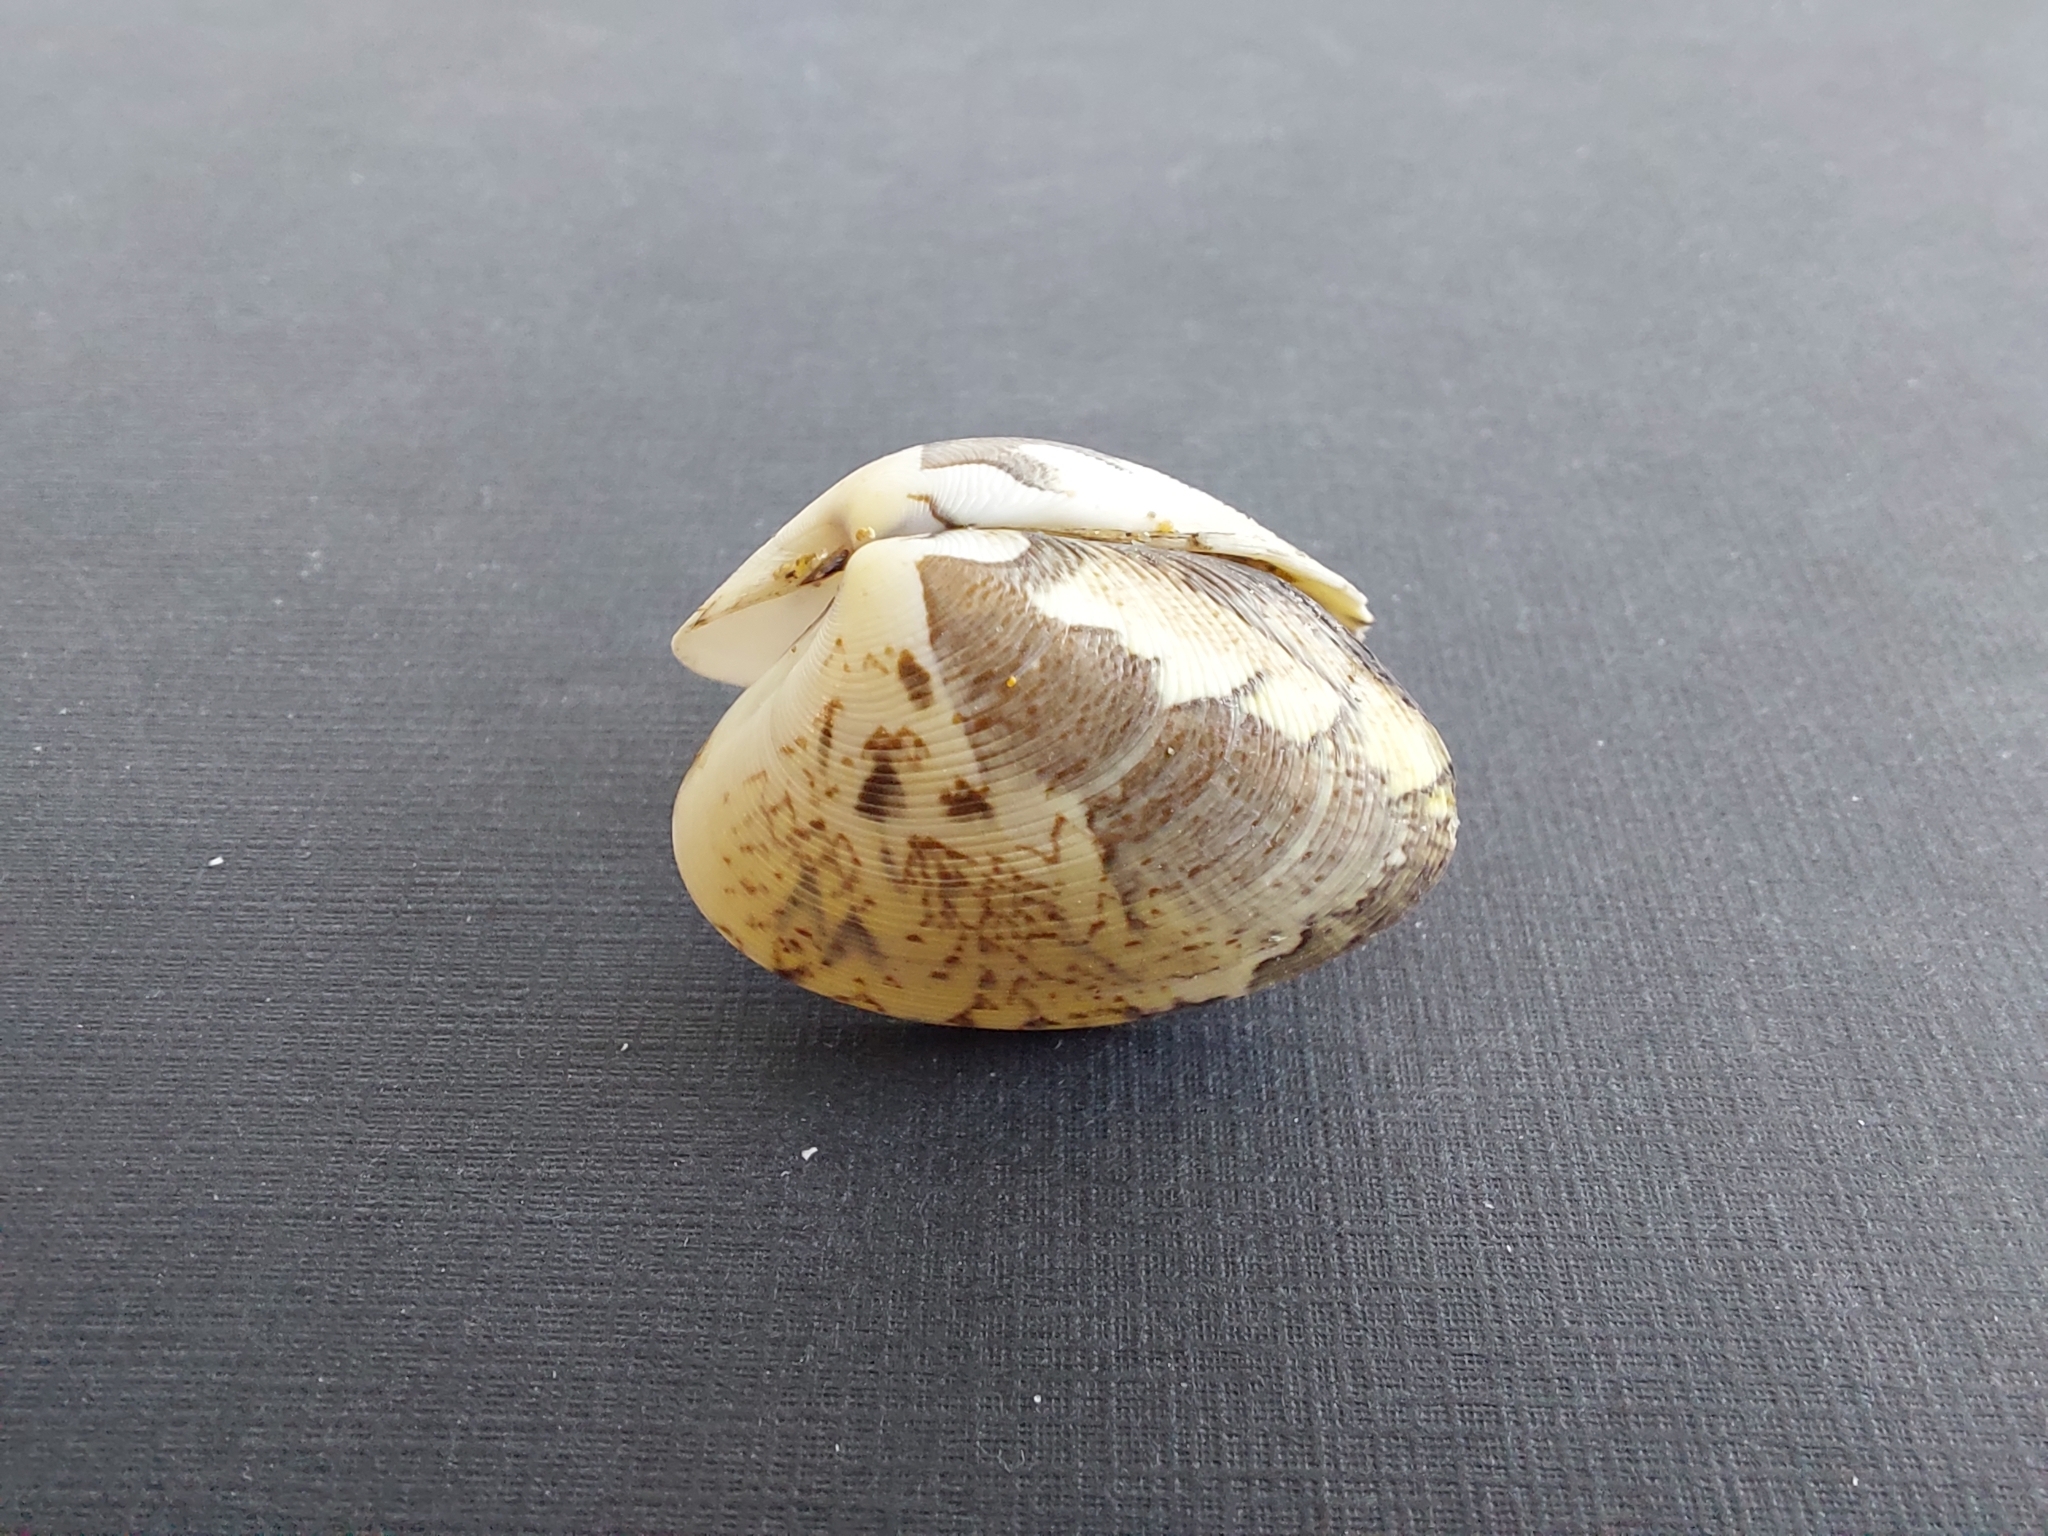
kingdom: Animalia
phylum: Mollusca
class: Bivalvia
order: Venerida
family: Veneridae
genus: Polititapes
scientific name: Polititapes aureus
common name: Golden carpet shell
